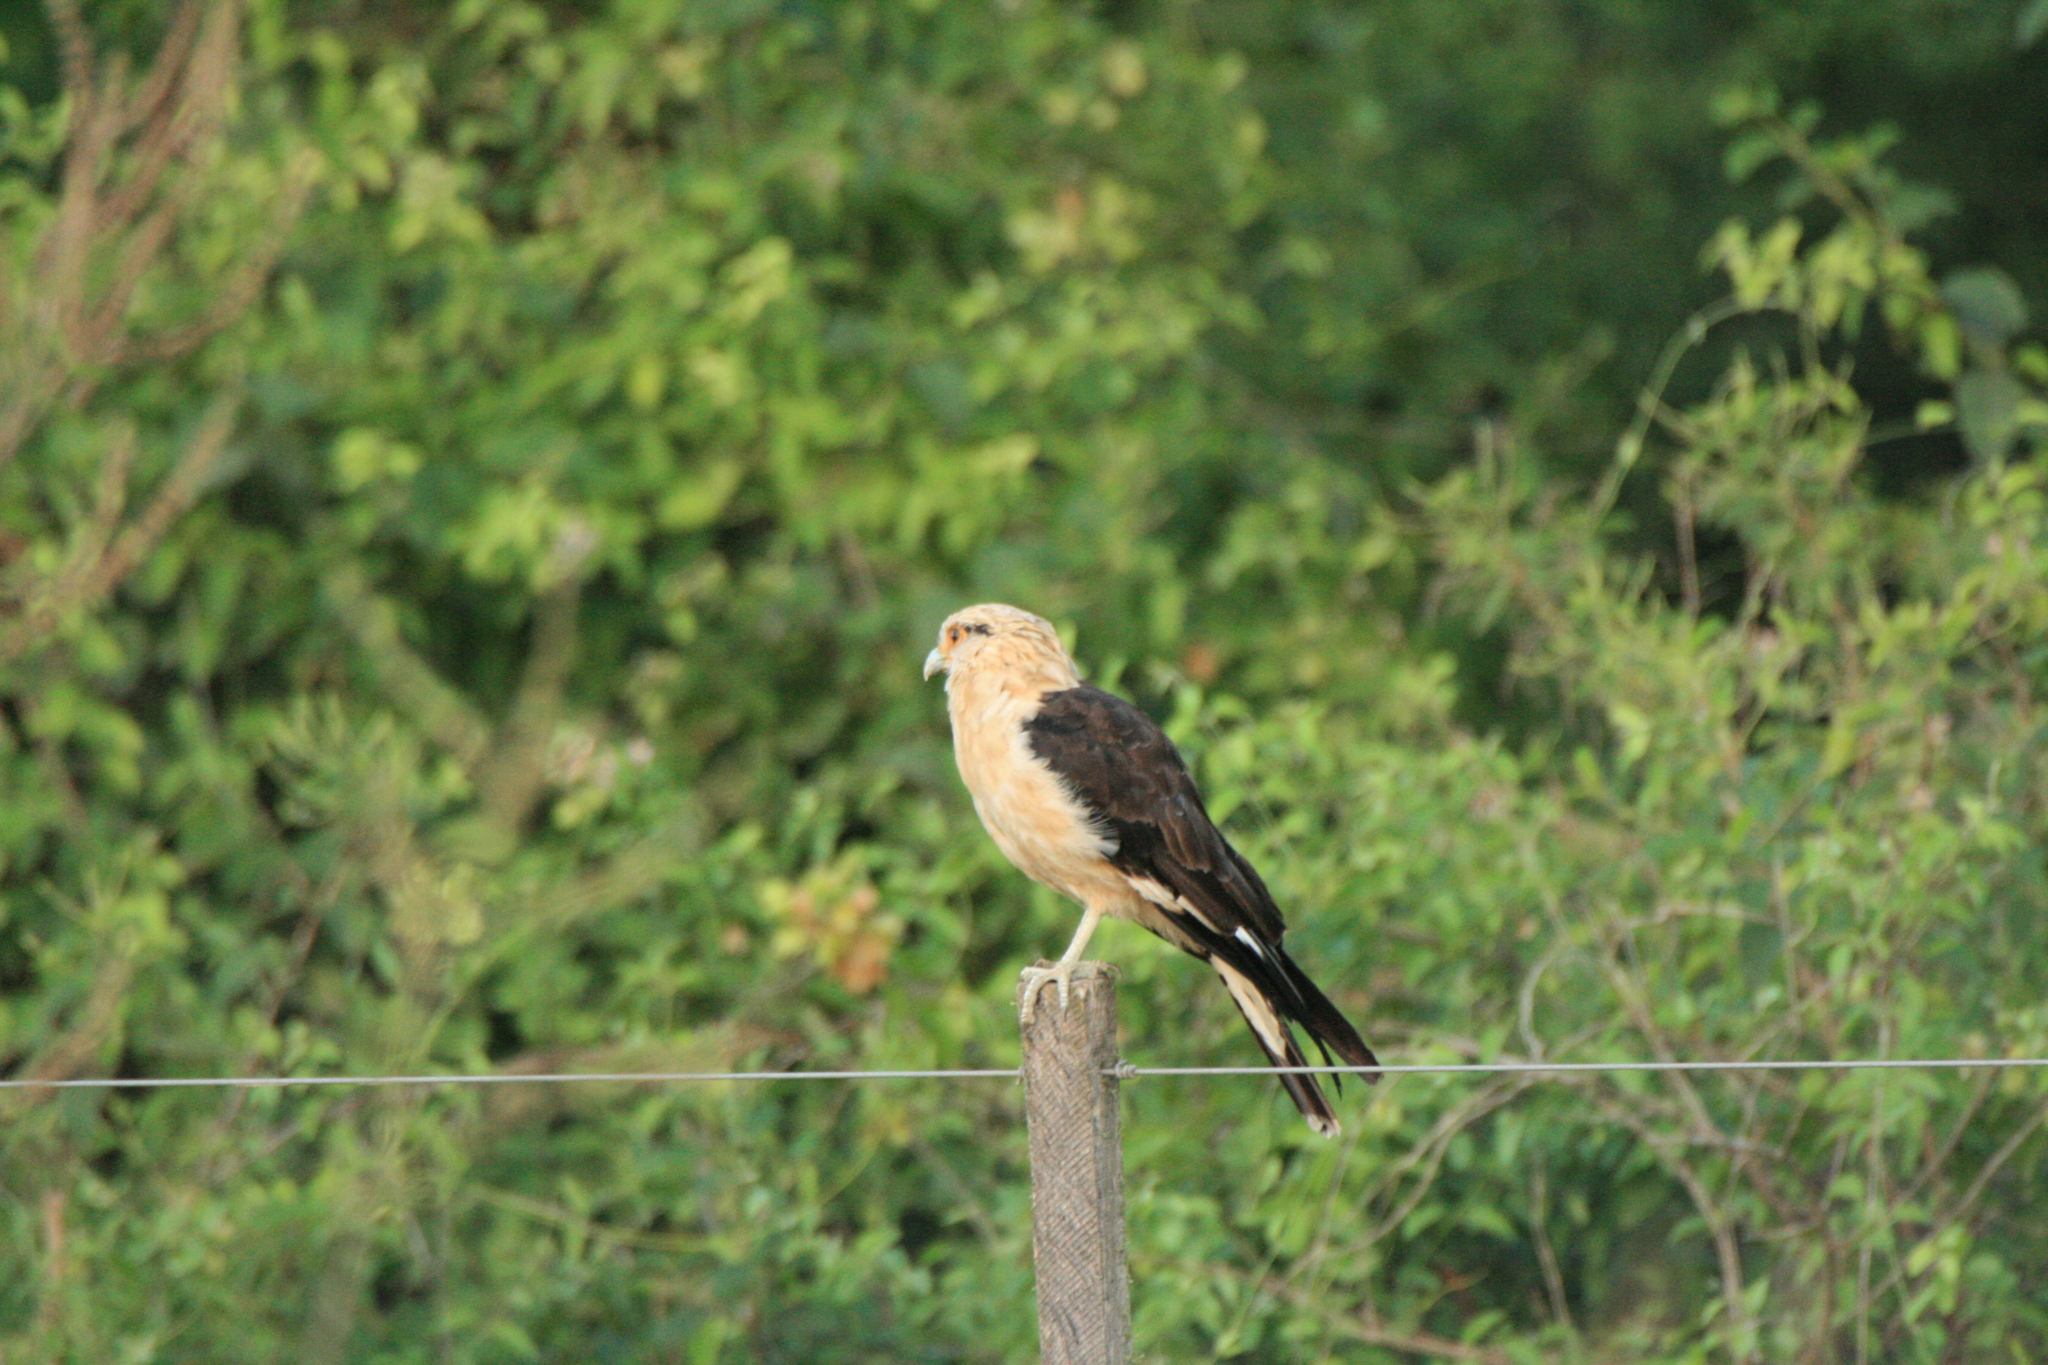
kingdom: Animalia
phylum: Chordata
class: Aves
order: Falconiformes
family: Falconidae
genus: Daptrius
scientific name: Daptrius
